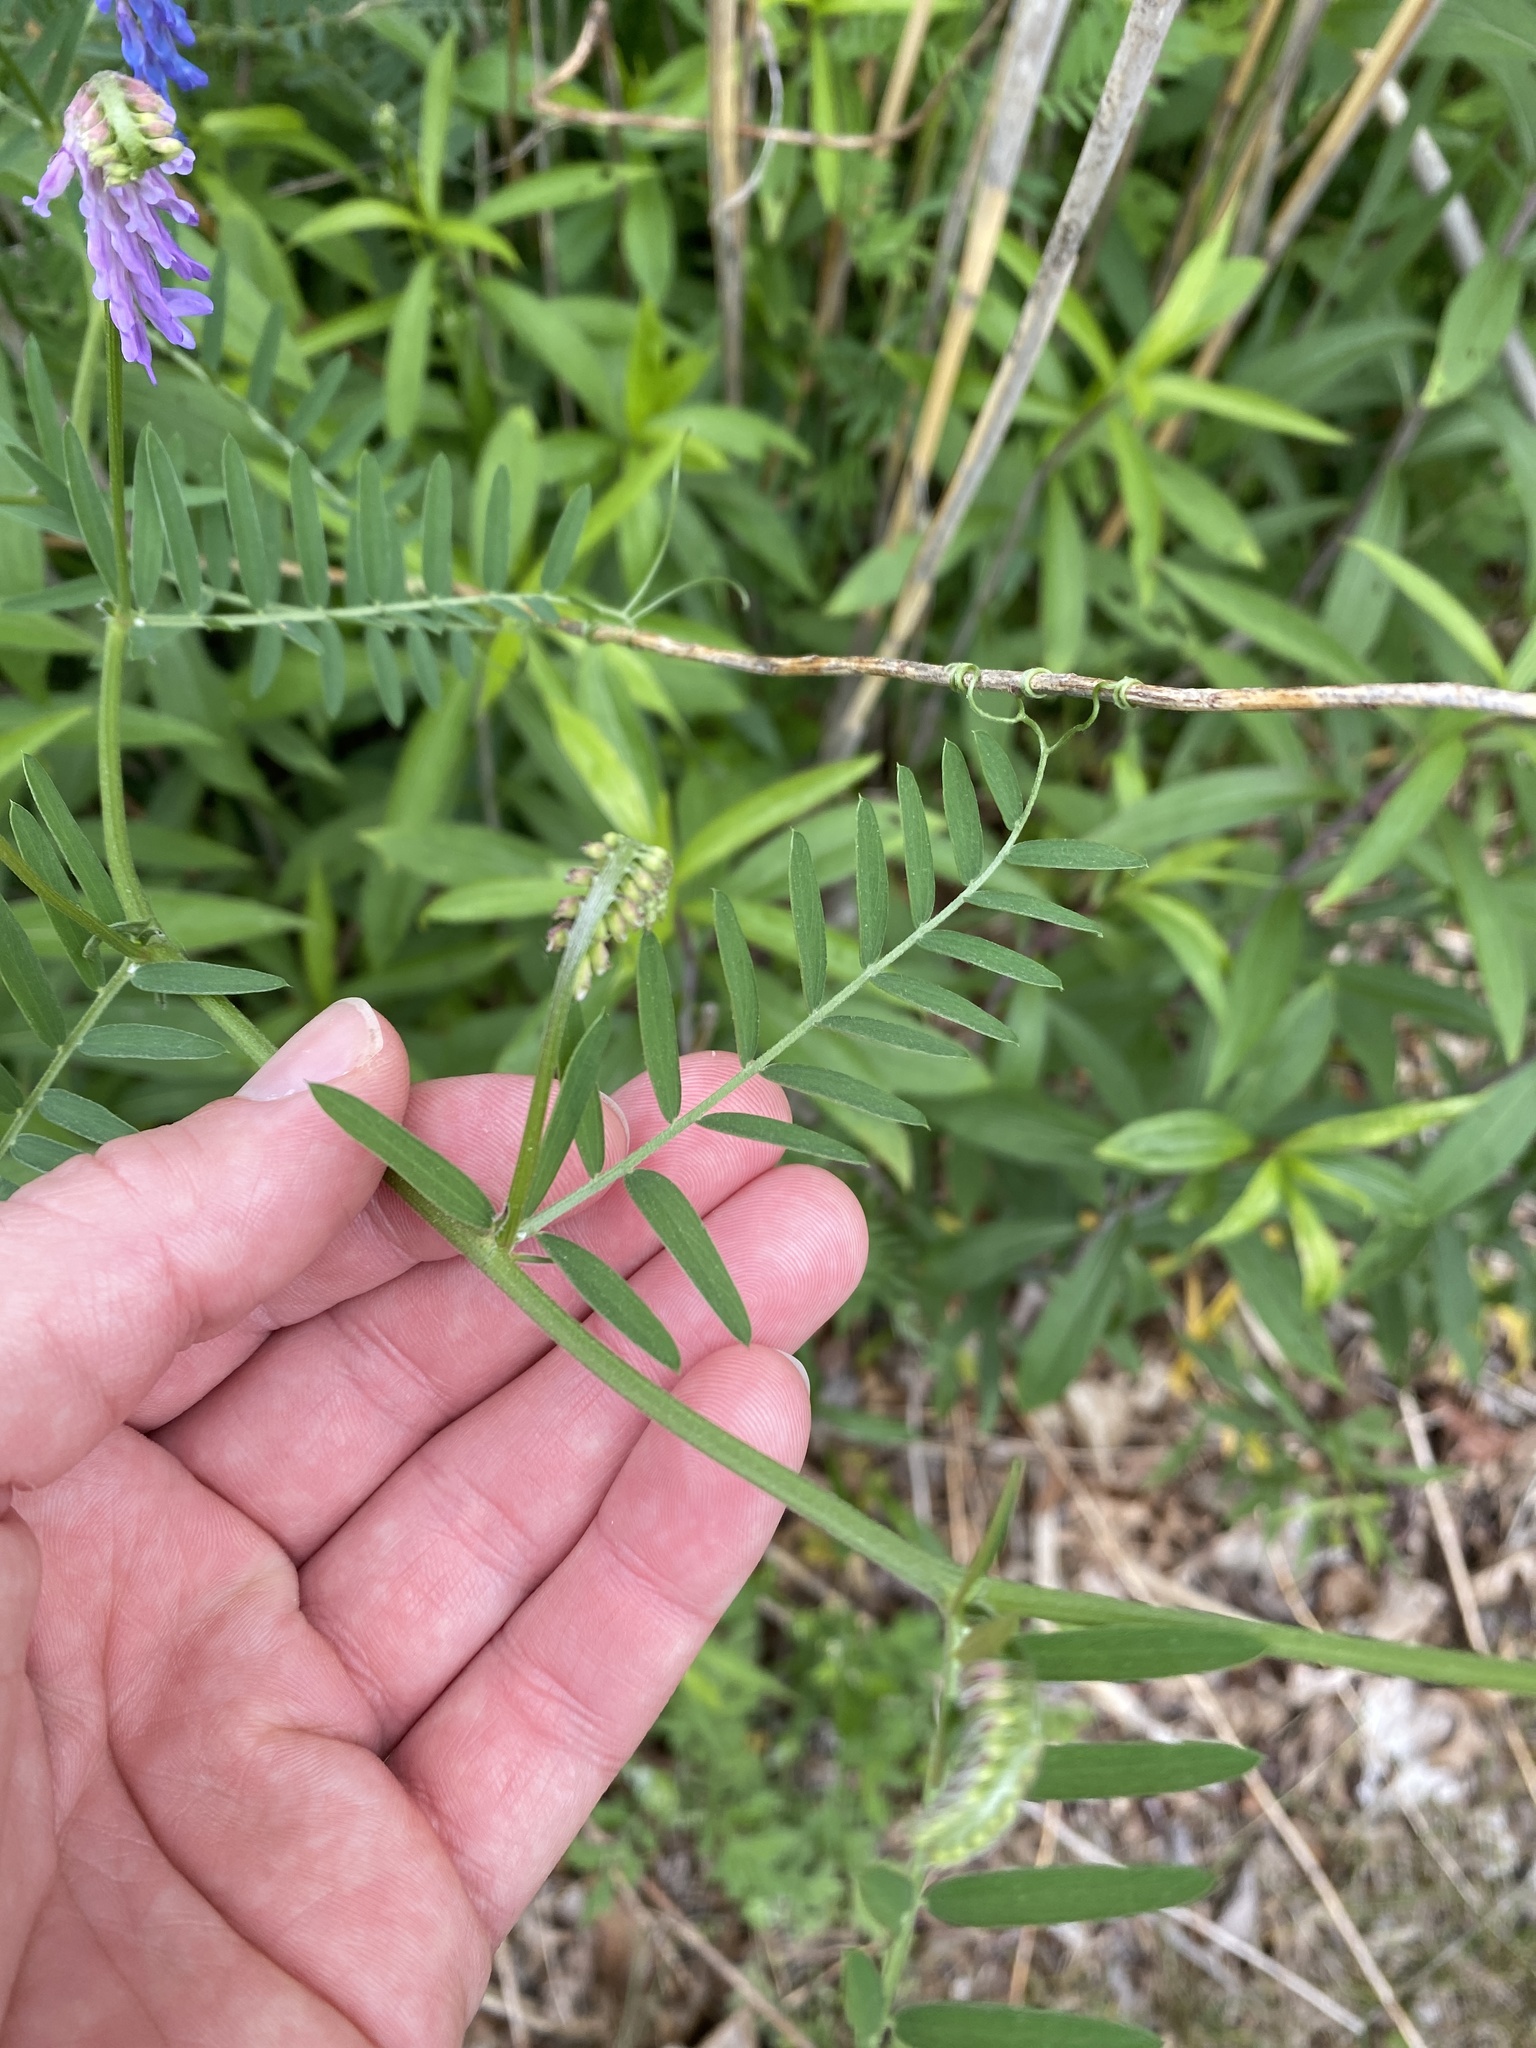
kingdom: Plantae
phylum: Tracheophyta
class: Magnoliopsida
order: Fabales
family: Fabaceae
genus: Vicia
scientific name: Vicia cracca
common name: Bird vetch
